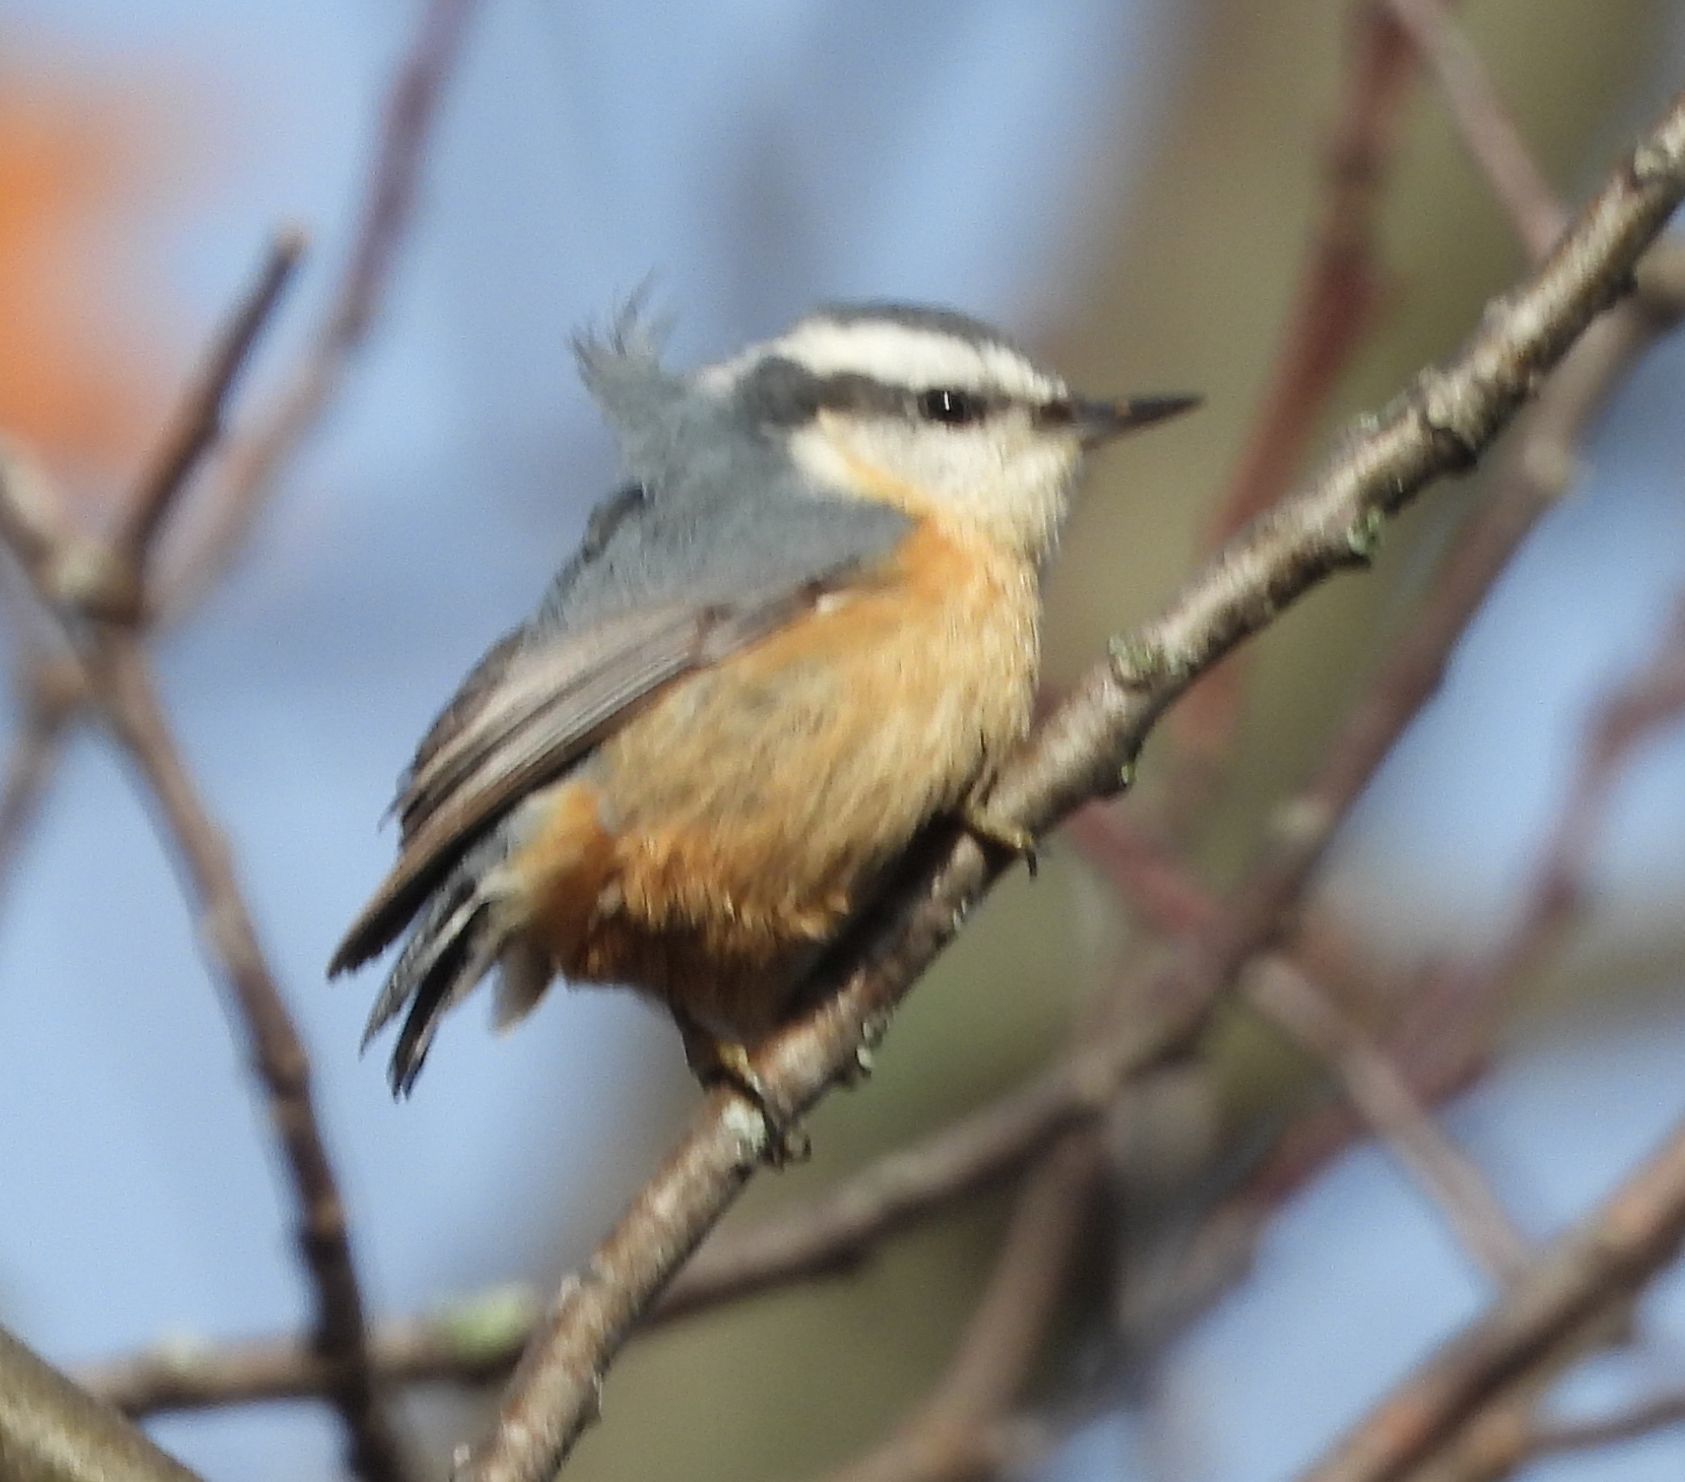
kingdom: Animalia
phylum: Chordata
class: Aves
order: Passeriformes
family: Sittidae
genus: Sitta
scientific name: Sitta canadensis
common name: Red-breasted nuthatch
